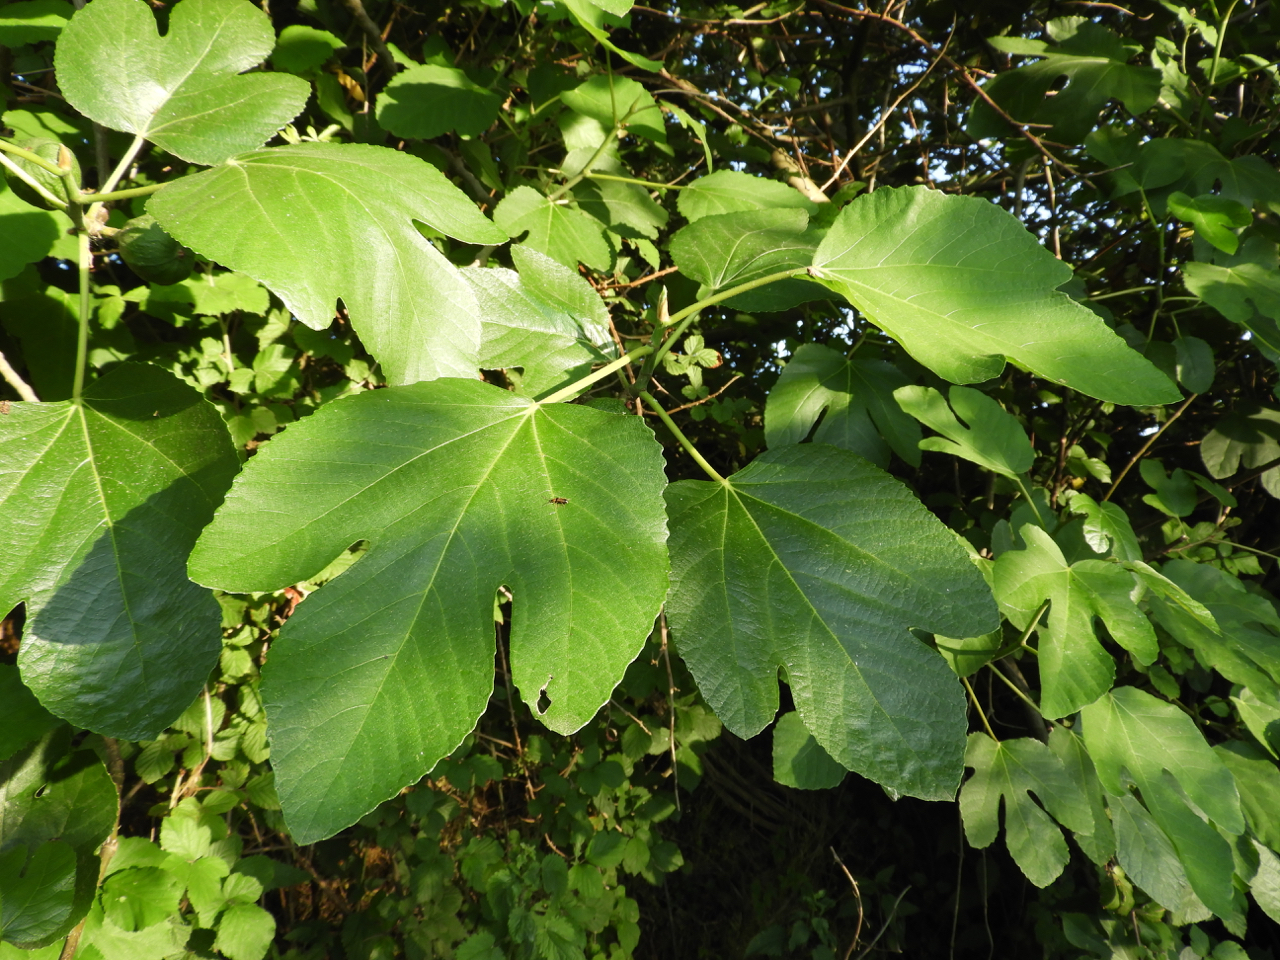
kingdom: Animalia
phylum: Arthropoda
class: Insecta
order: Coleoptera
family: Cantharidae
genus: Cratosilis
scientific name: Cratosilis laeta
